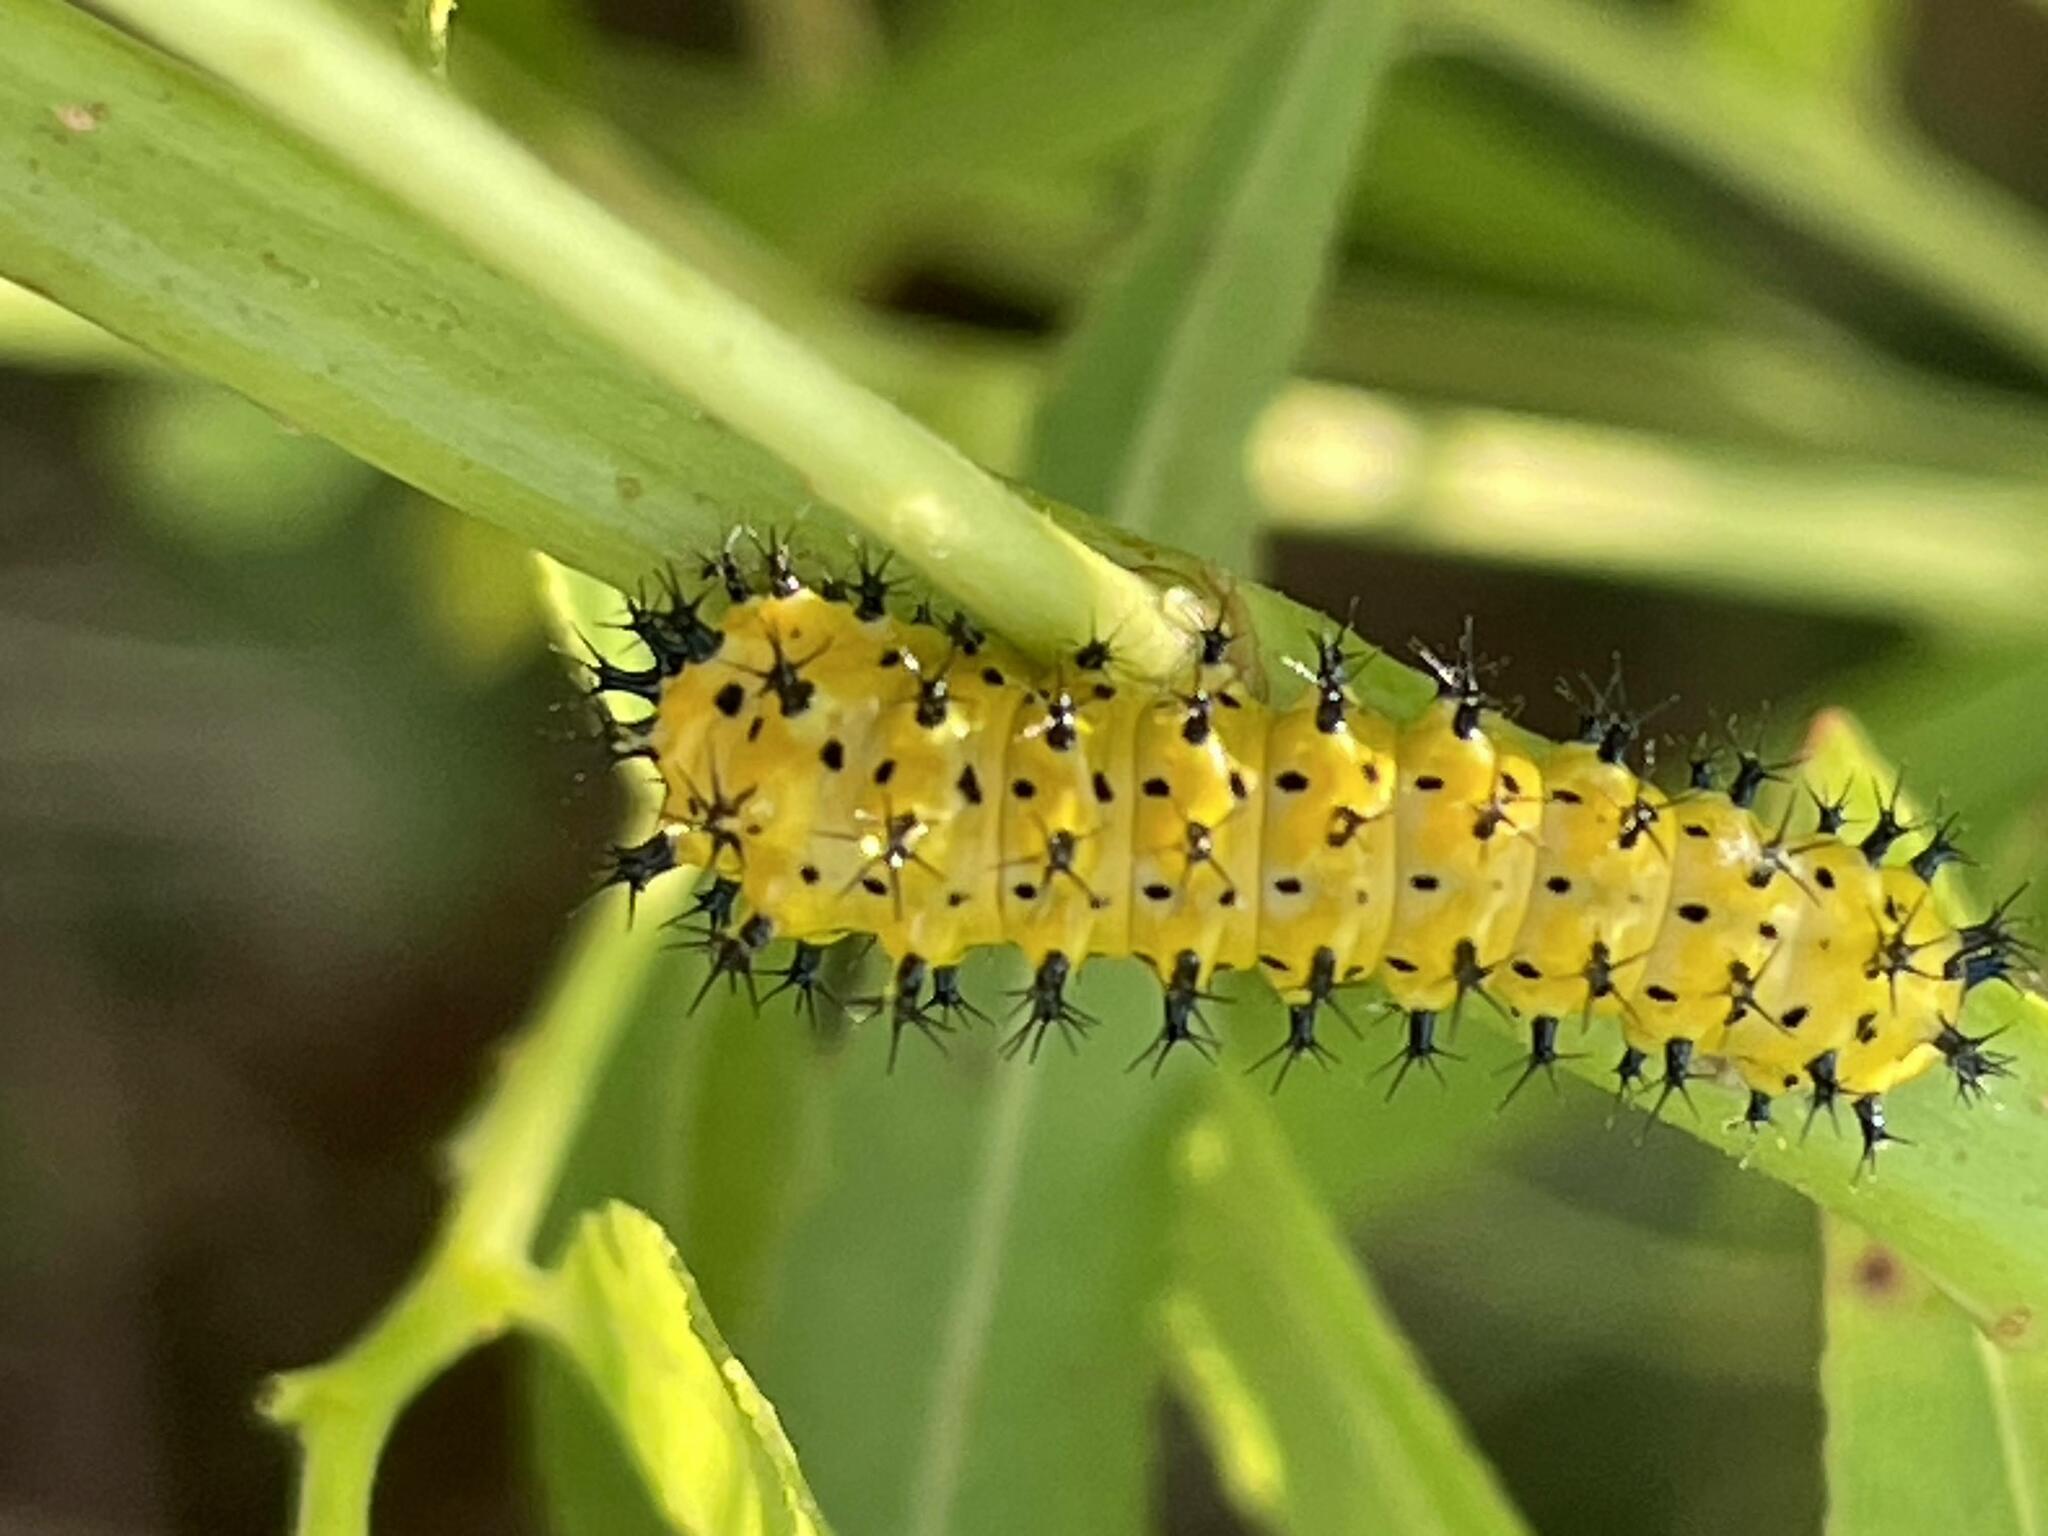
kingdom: Animalia
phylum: Arthropoda
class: Insecta
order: Lepidoptera
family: Saturniidae
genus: Hyalophora
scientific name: Hyalophora cecropia
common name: Cecropia silkmoth
